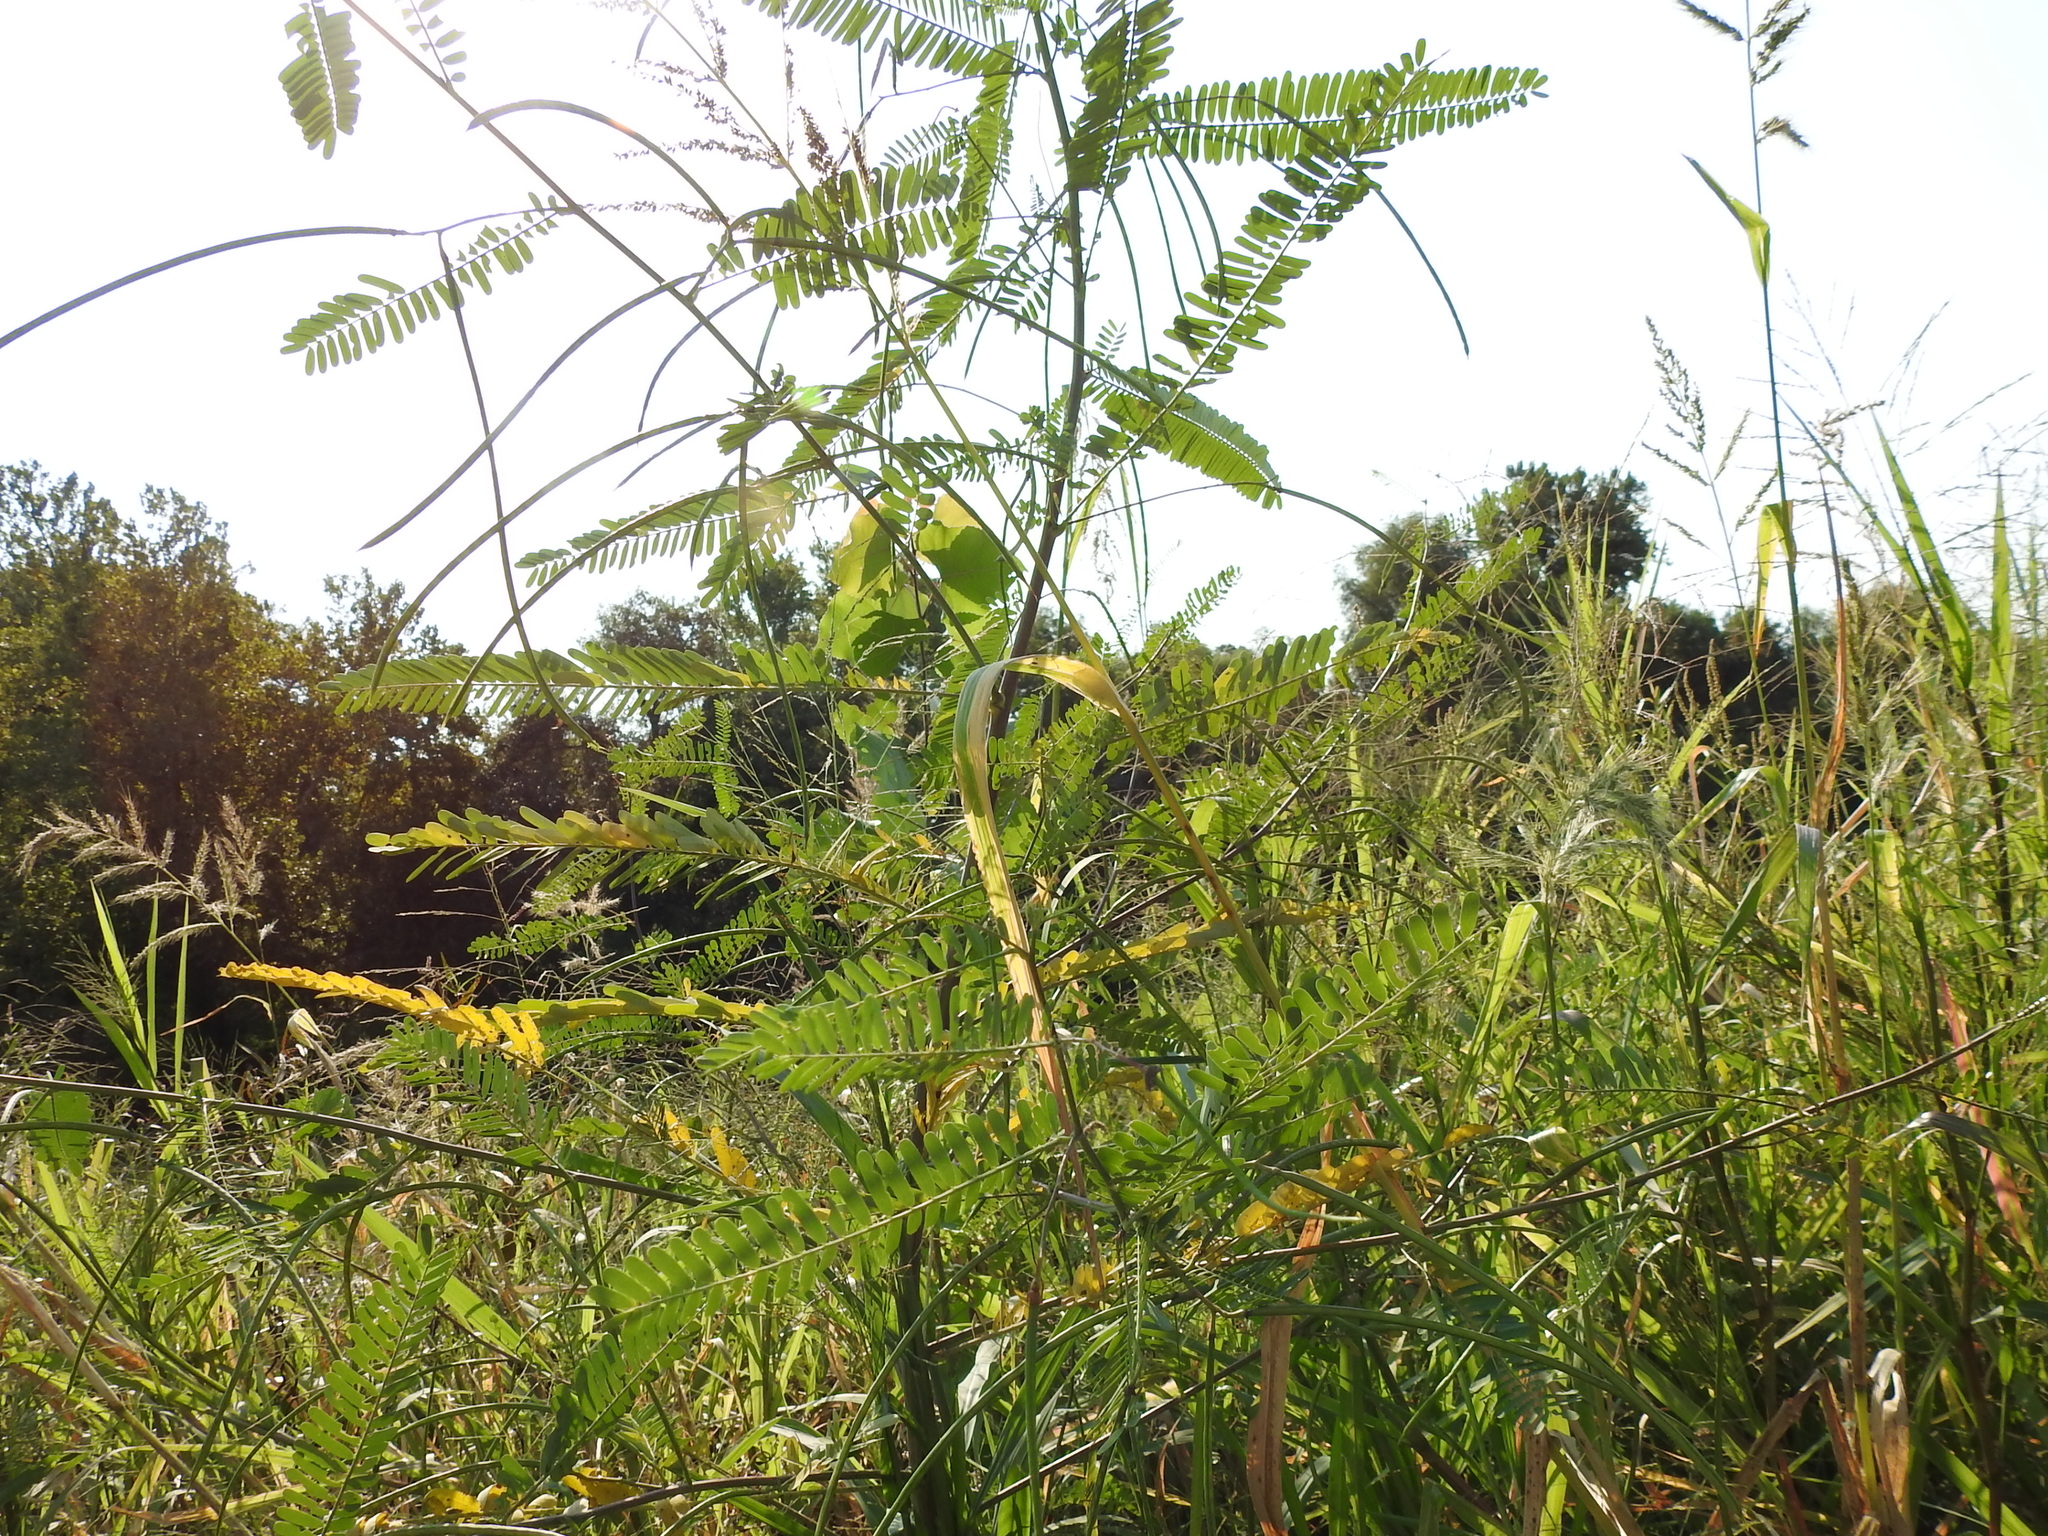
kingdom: Plantae
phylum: Tracheophyta
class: Magnoliopsida
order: Fabales
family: Fabaceae
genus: Sesbania
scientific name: Sesbania herbacea
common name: Bigpod sesbania
